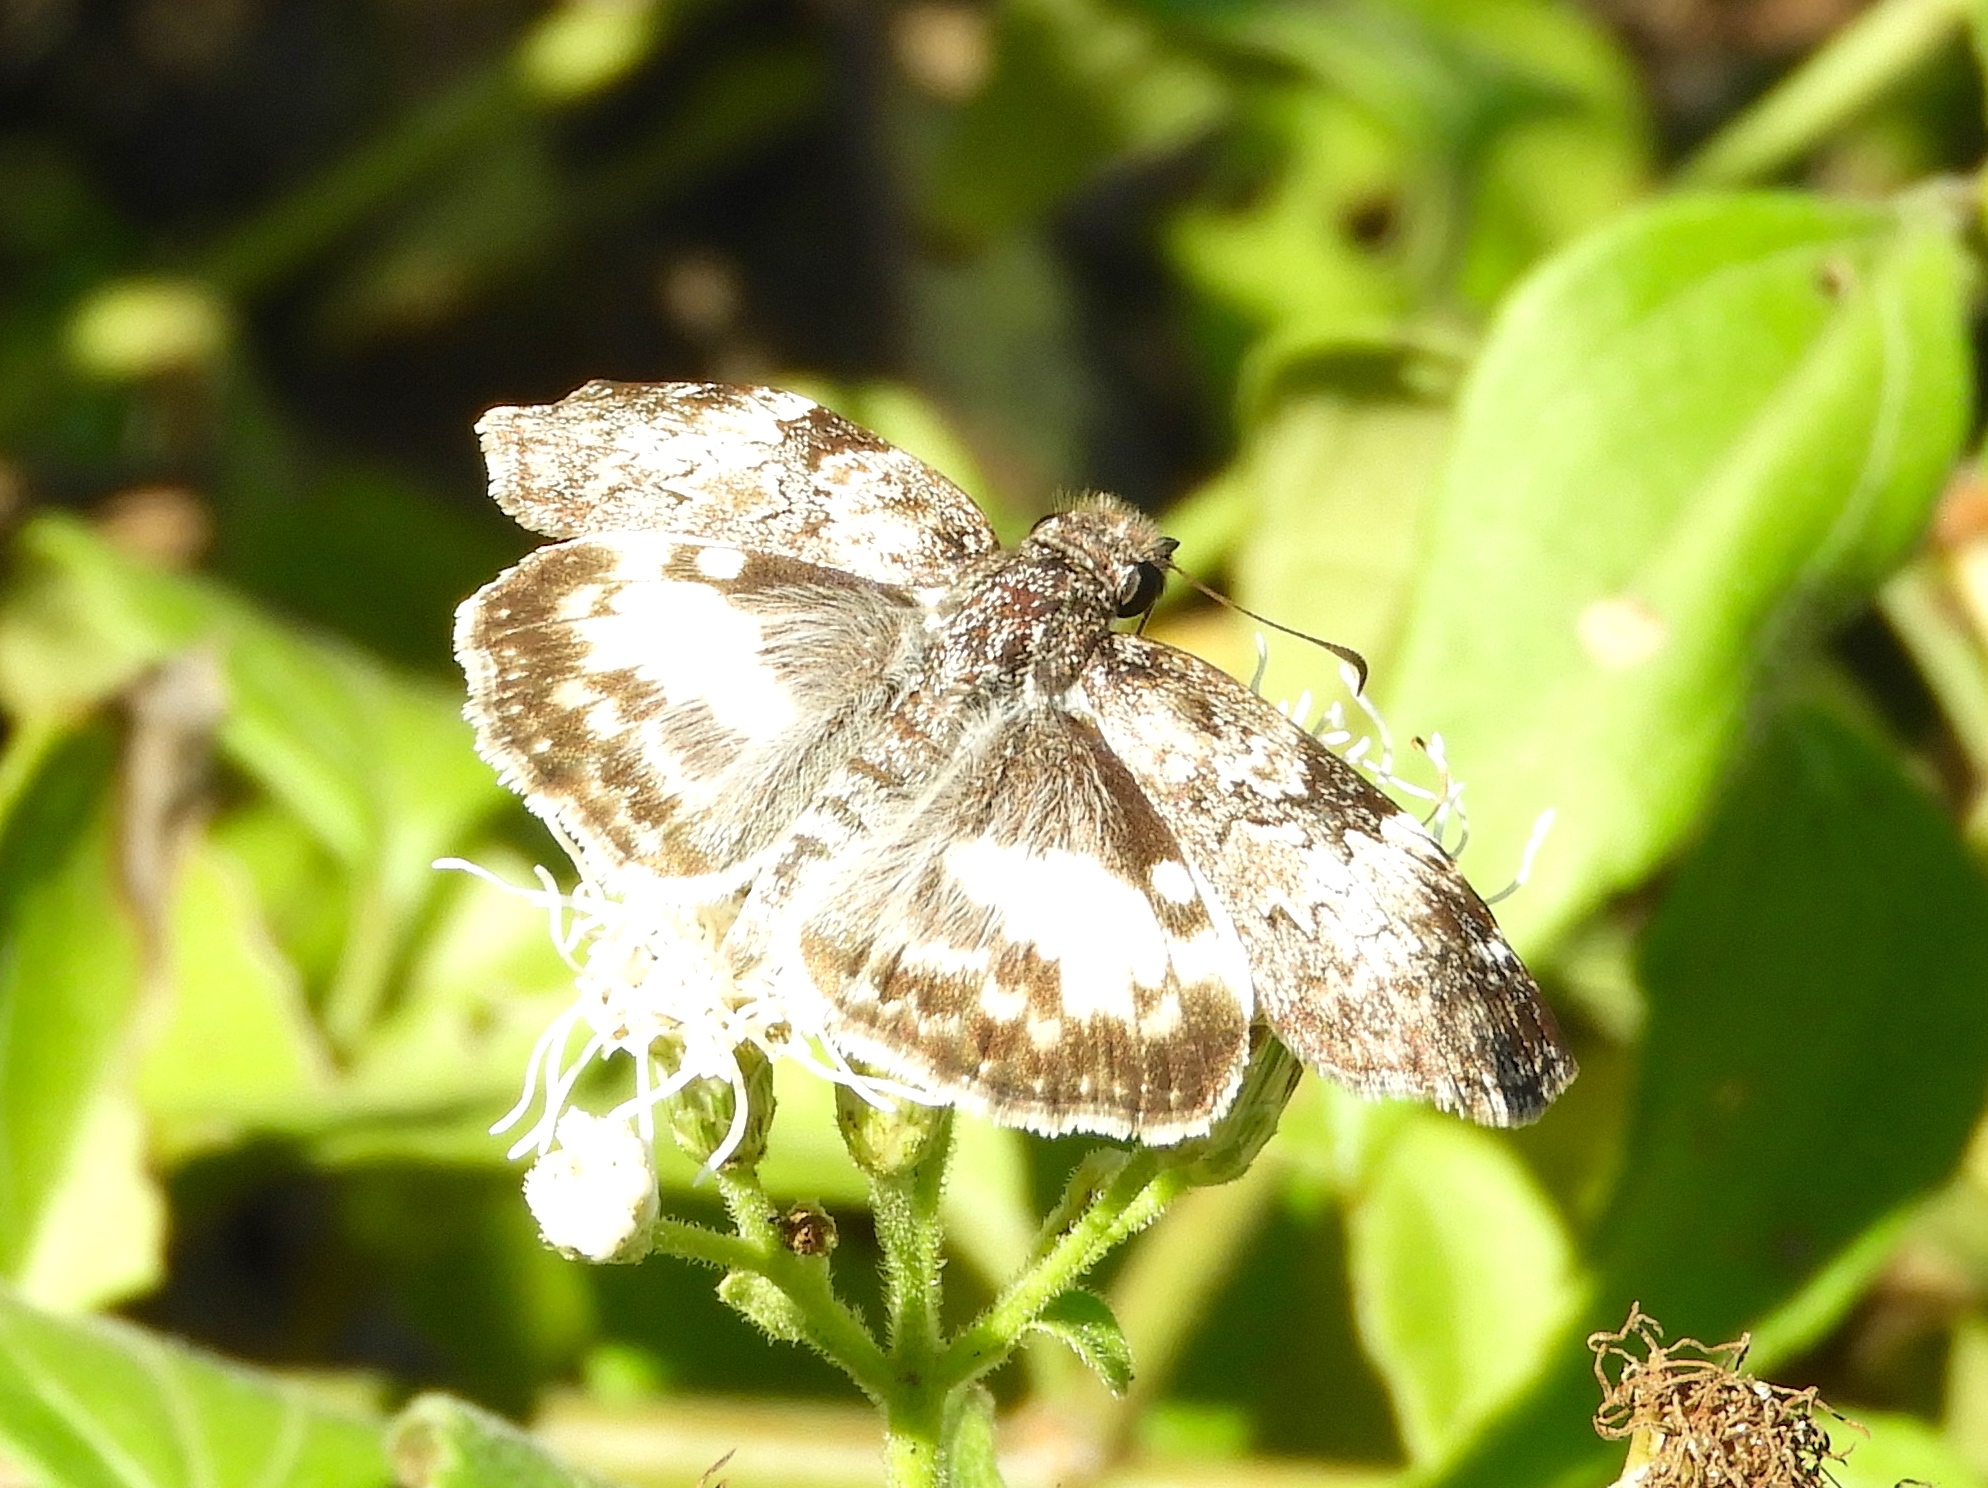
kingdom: Animalia
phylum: Arthropoda
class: Insecta
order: Lepidoptera
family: Hesperiidae
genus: Chiothion
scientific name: Chiothion georgina
